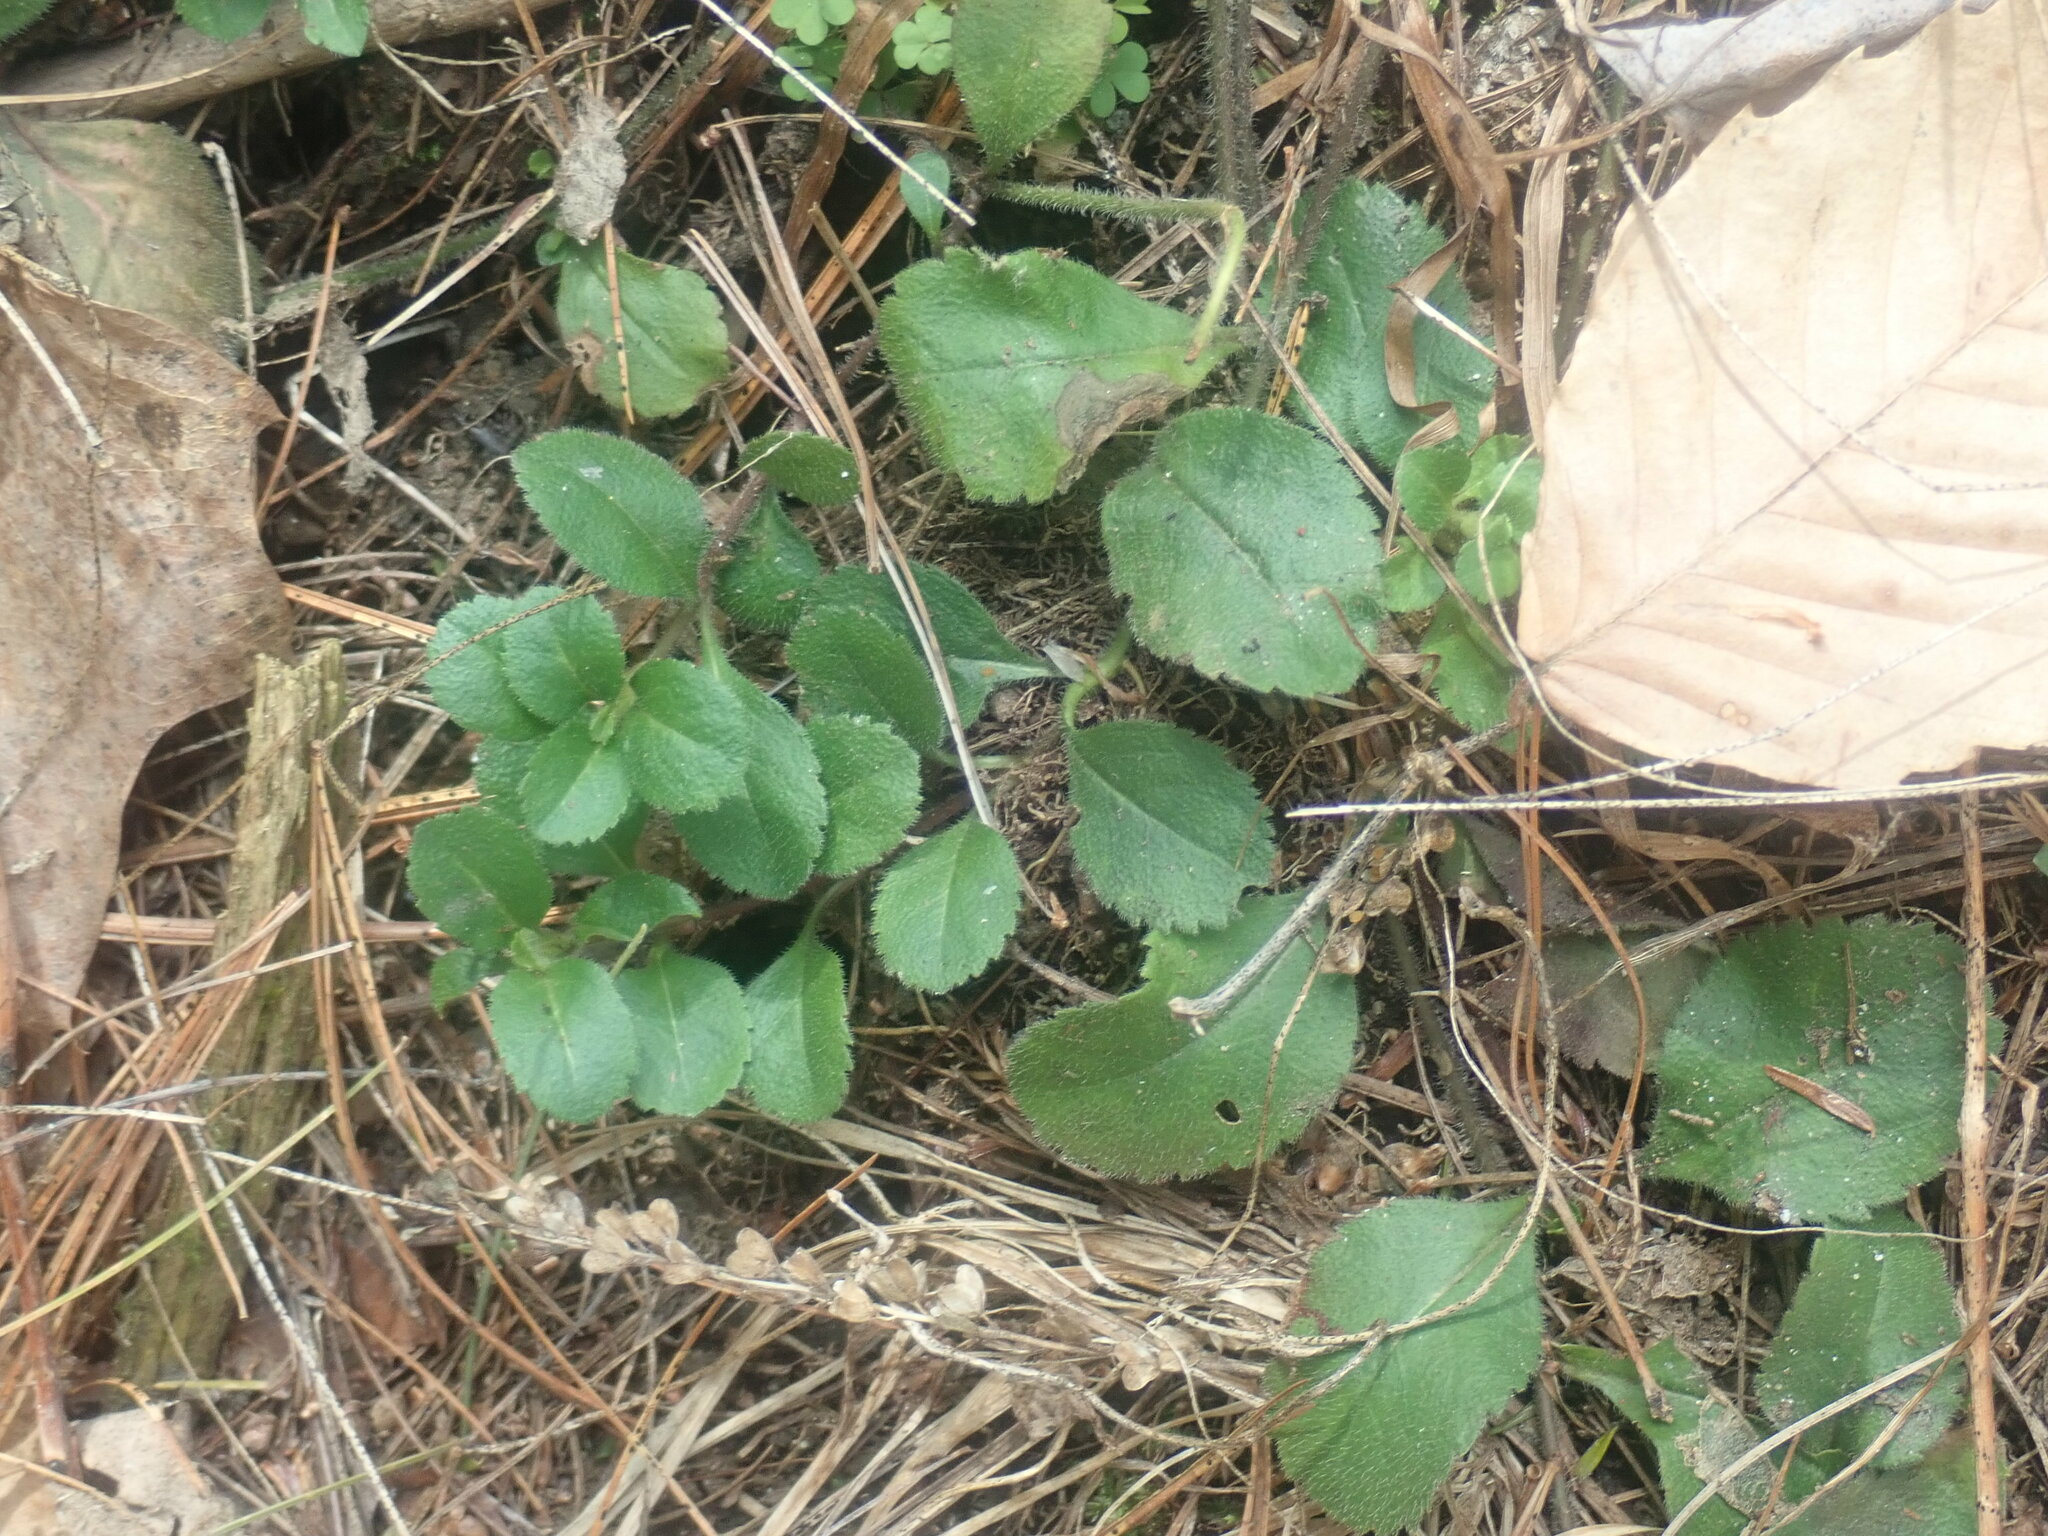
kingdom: Plantae
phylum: Tracheophyta
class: Magnoliopsida
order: Lamiales
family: Plantaginaceae
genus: Veronica
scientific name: Veronica officinalis
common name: Common speedwell
